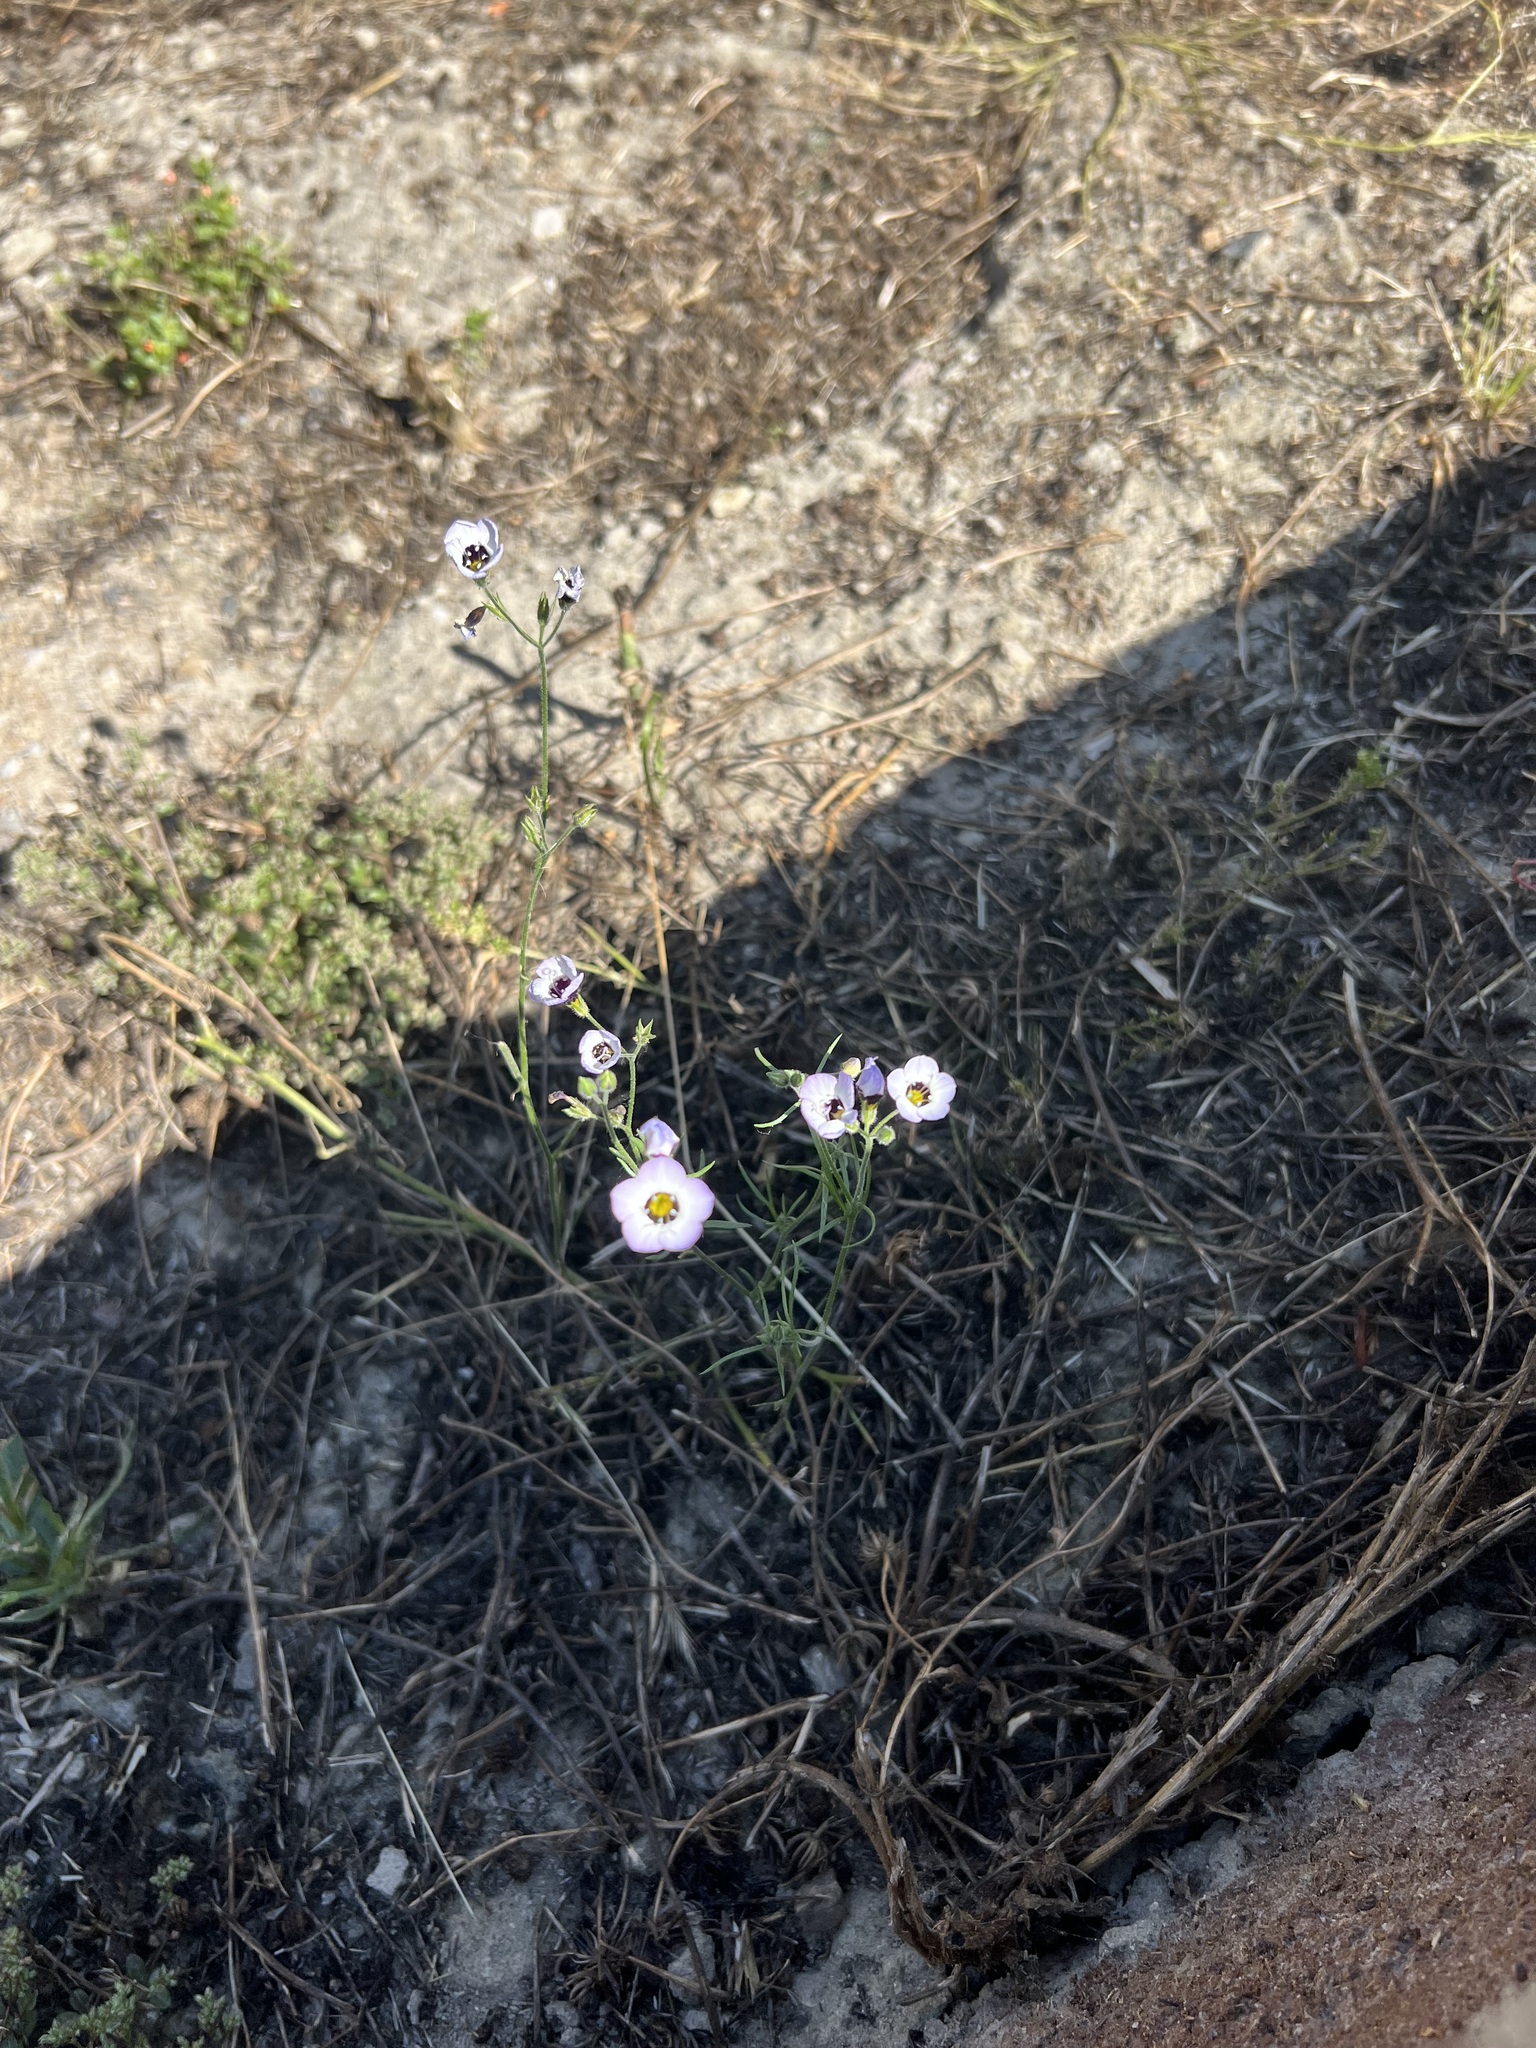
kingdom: Plantae
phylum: Tracheophyta
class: Magnoliopsida
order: Ericales
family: Polemoniaceae
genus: Gilia
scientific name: Gilia tricolor
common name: Bird's-eyes
